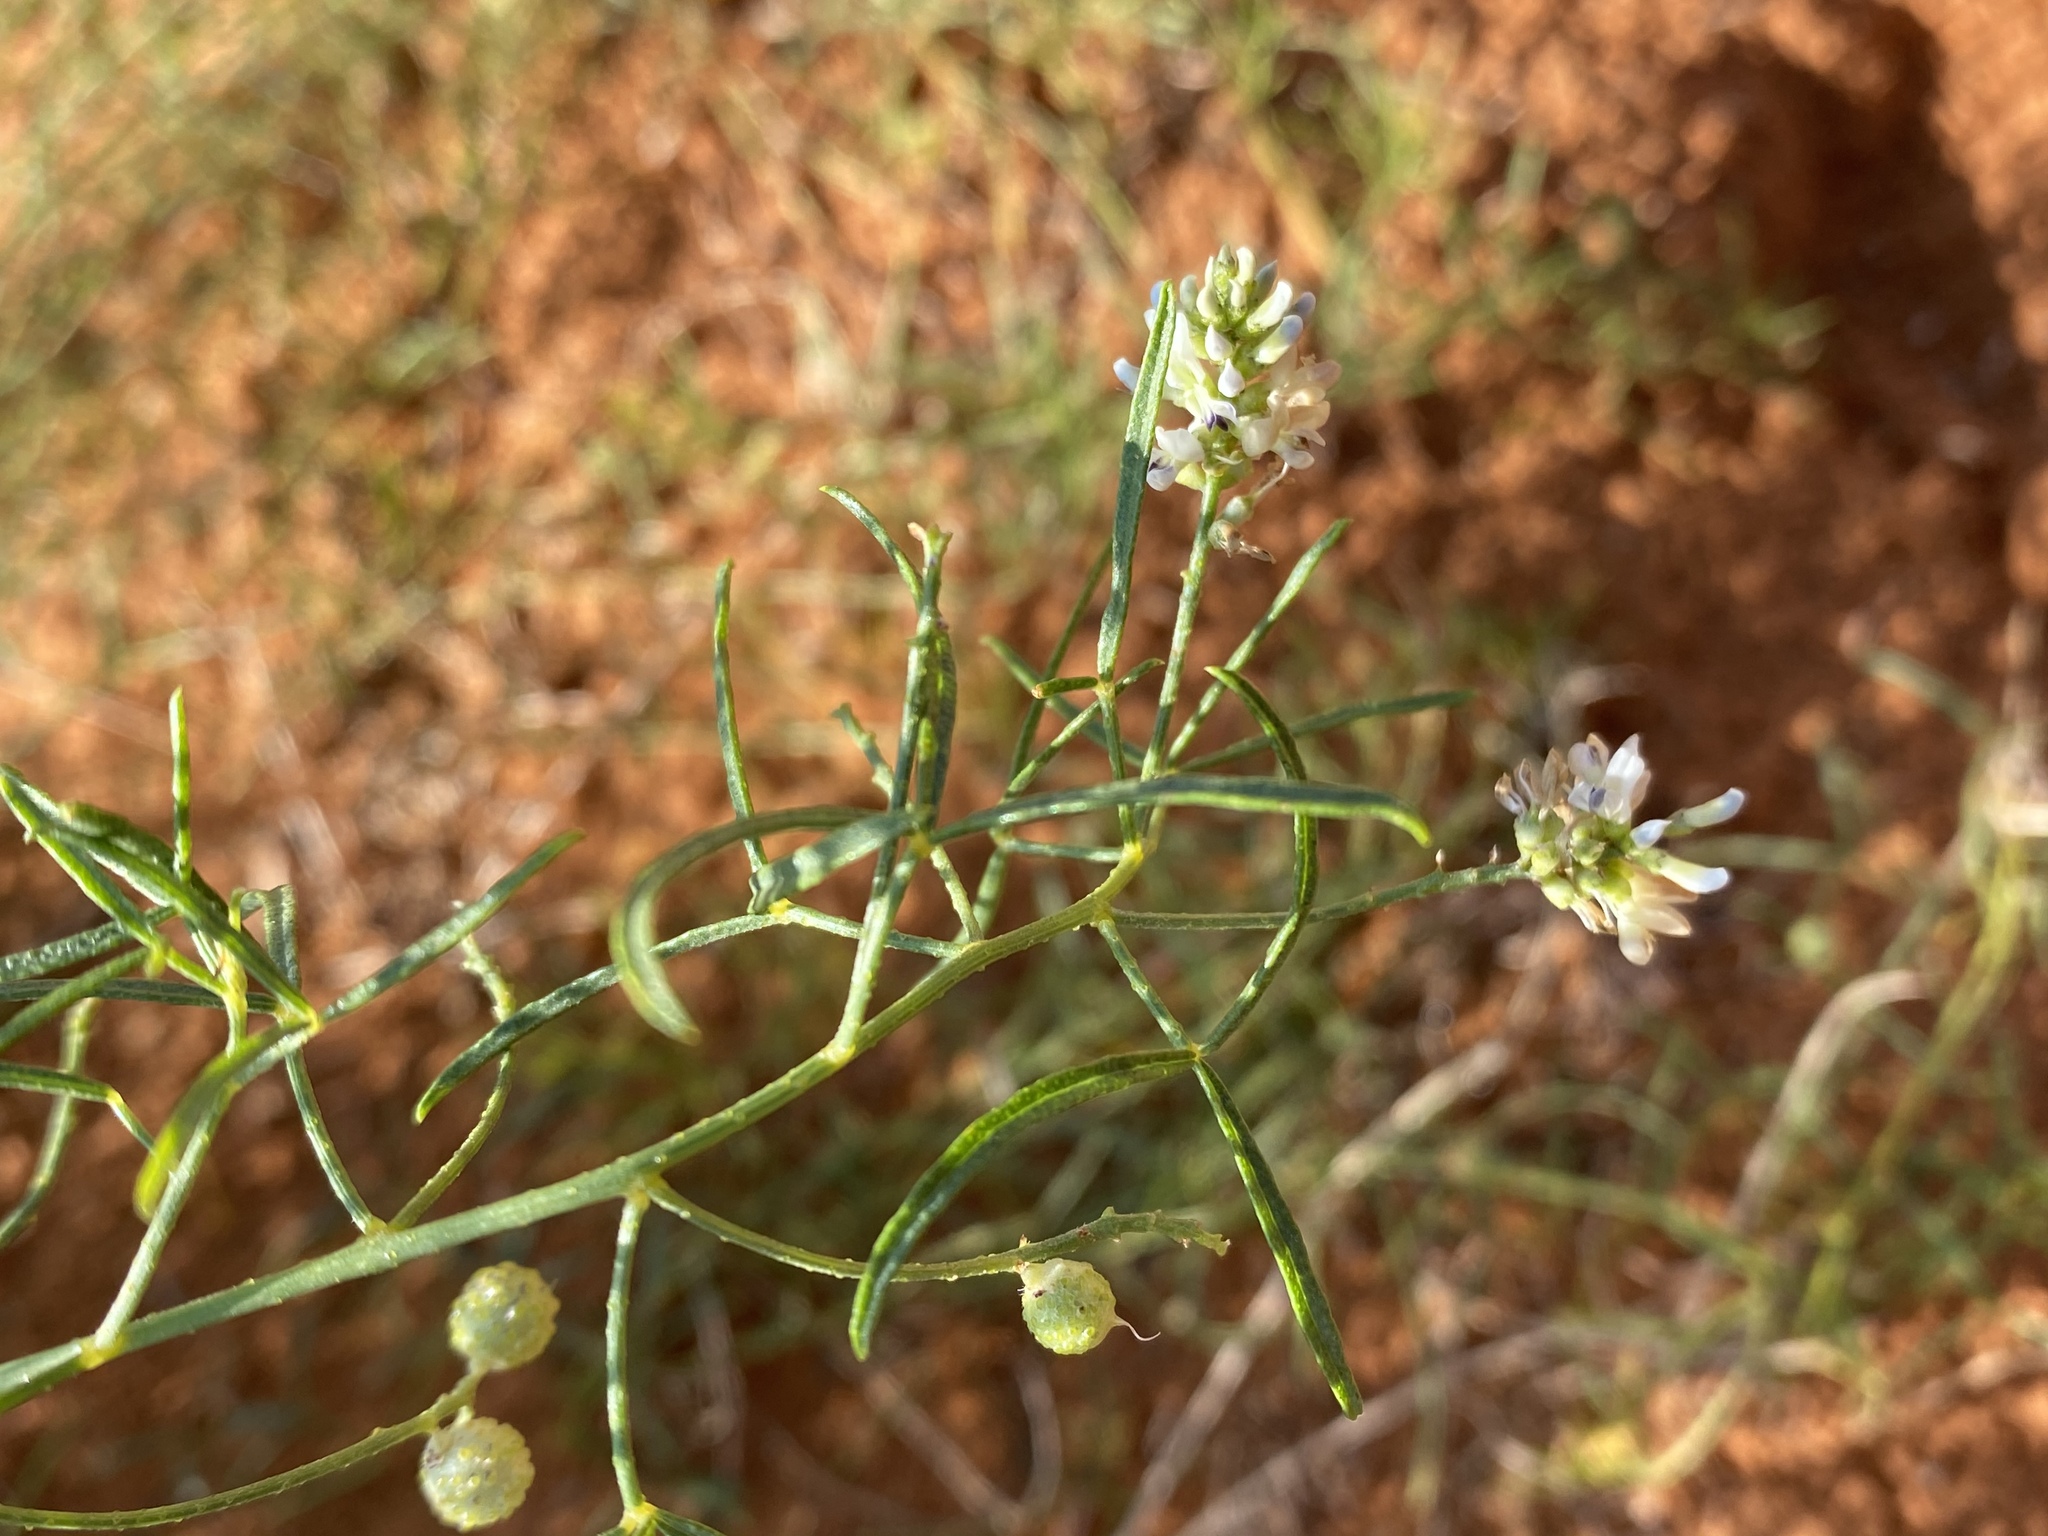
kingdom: Plantae
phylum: Tracheophyta
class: Magnoliopsida
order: Fabales
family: Fabaceae
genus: Ladeania
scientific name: Ladeania lanceolata
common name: Dune scurf-pea
